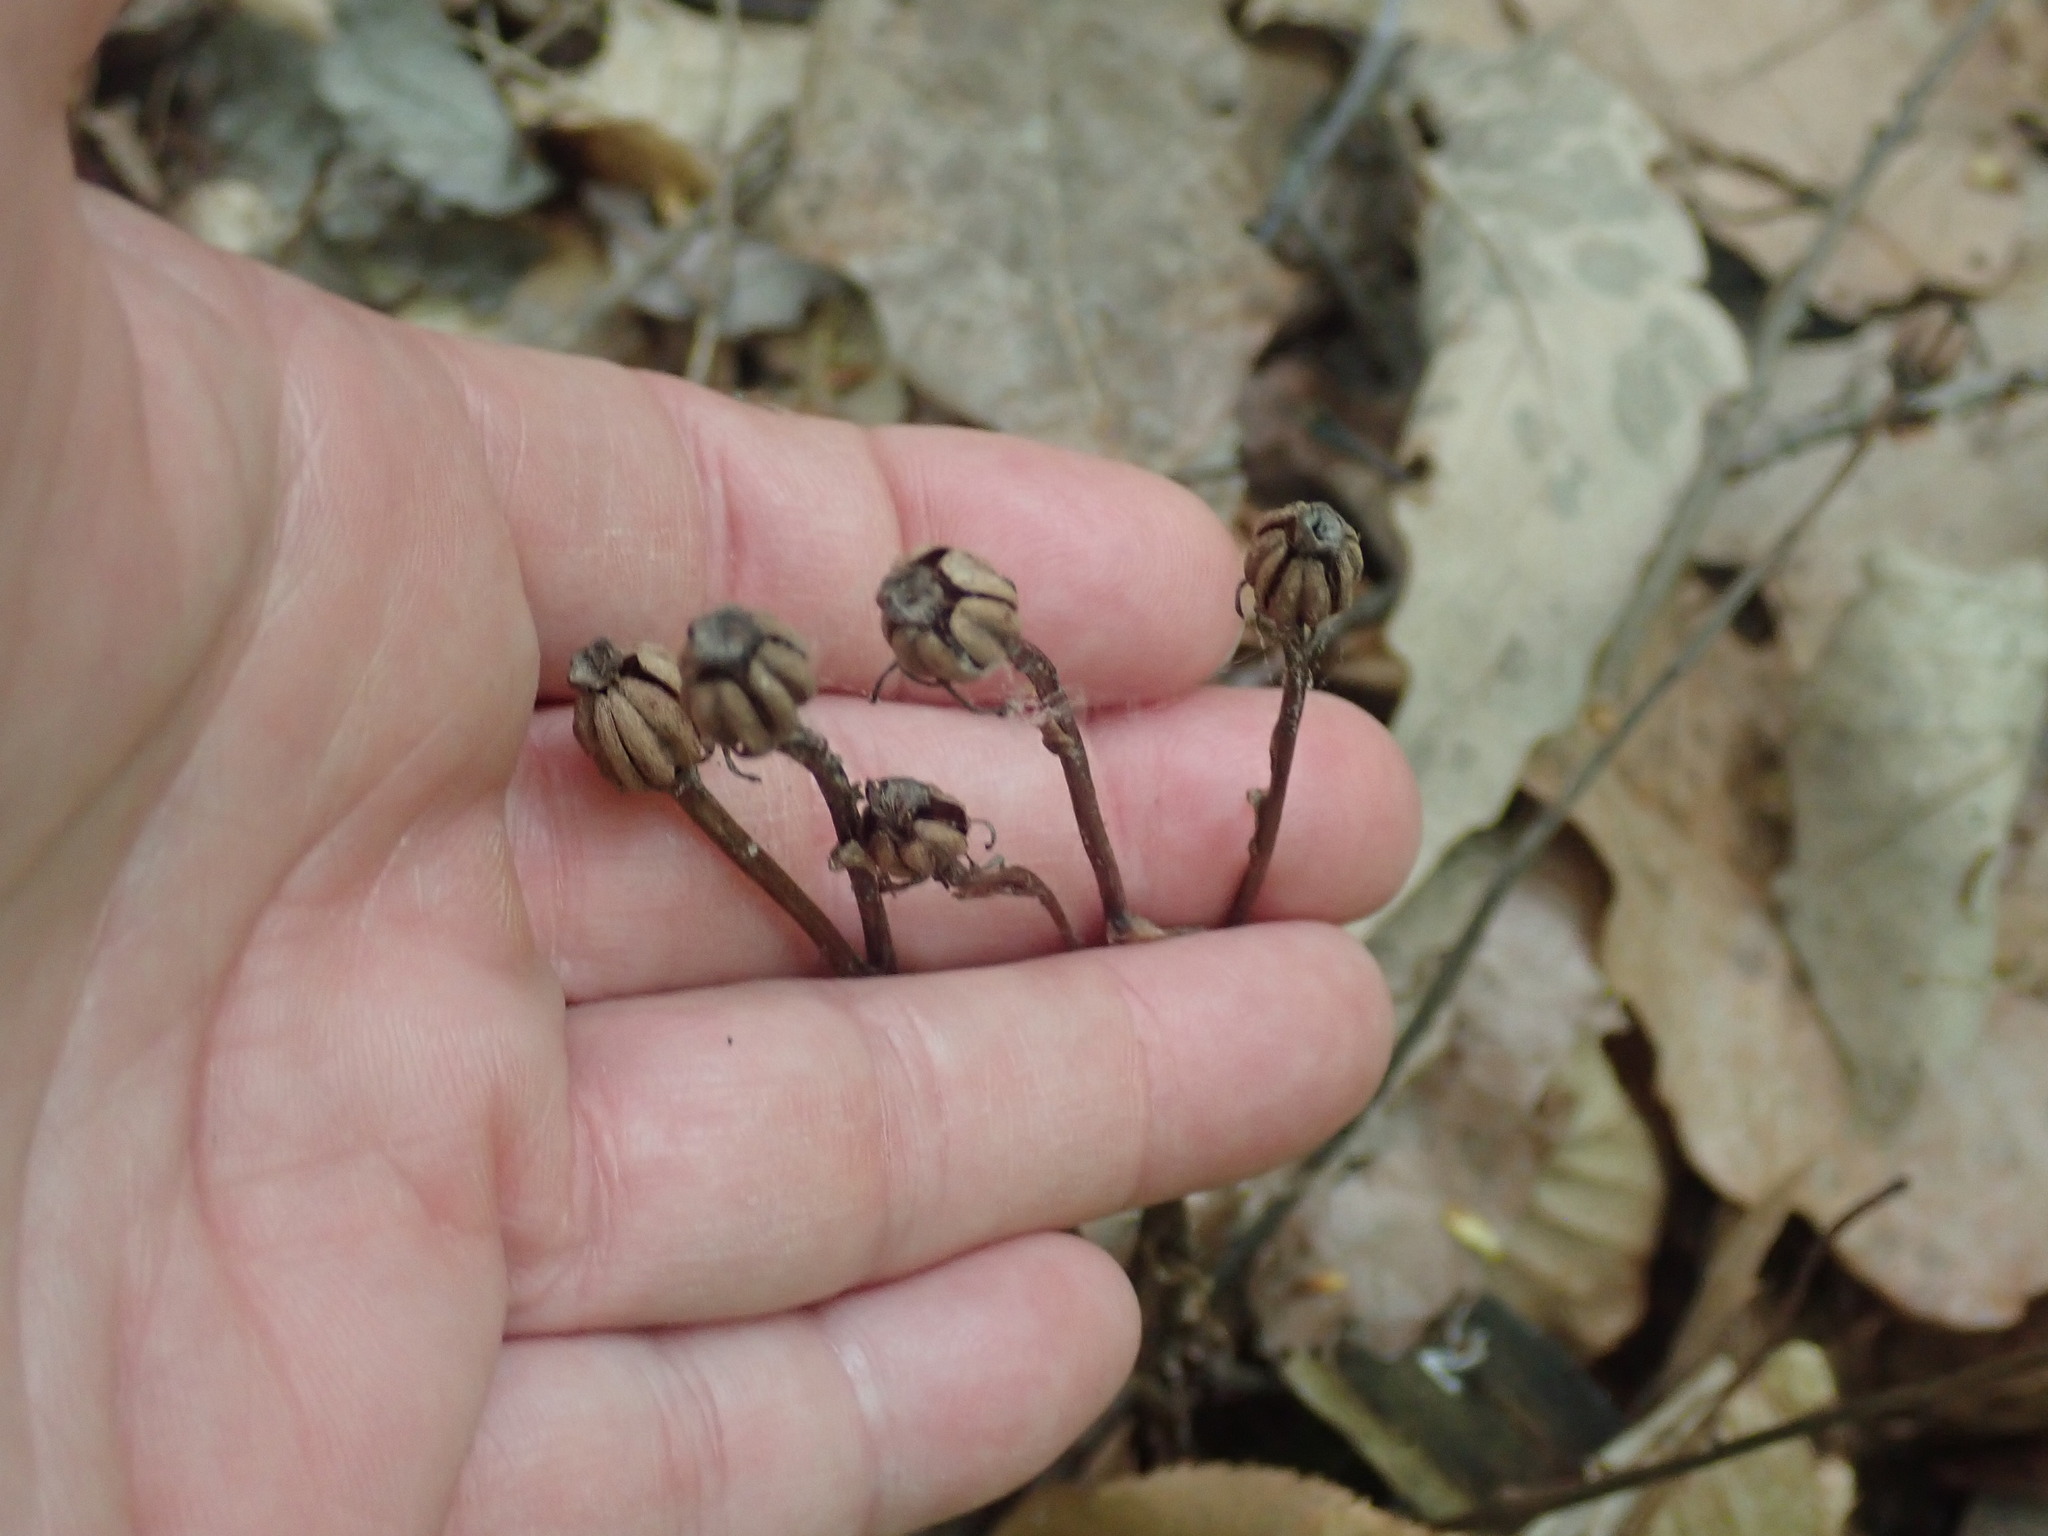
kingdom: Plantae
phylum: Tracheophyta
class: Magnoliopsida
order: Ericales
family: Ericaceae
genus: Monotropa
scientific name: Monotropa uniflora
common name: Convulsion root
